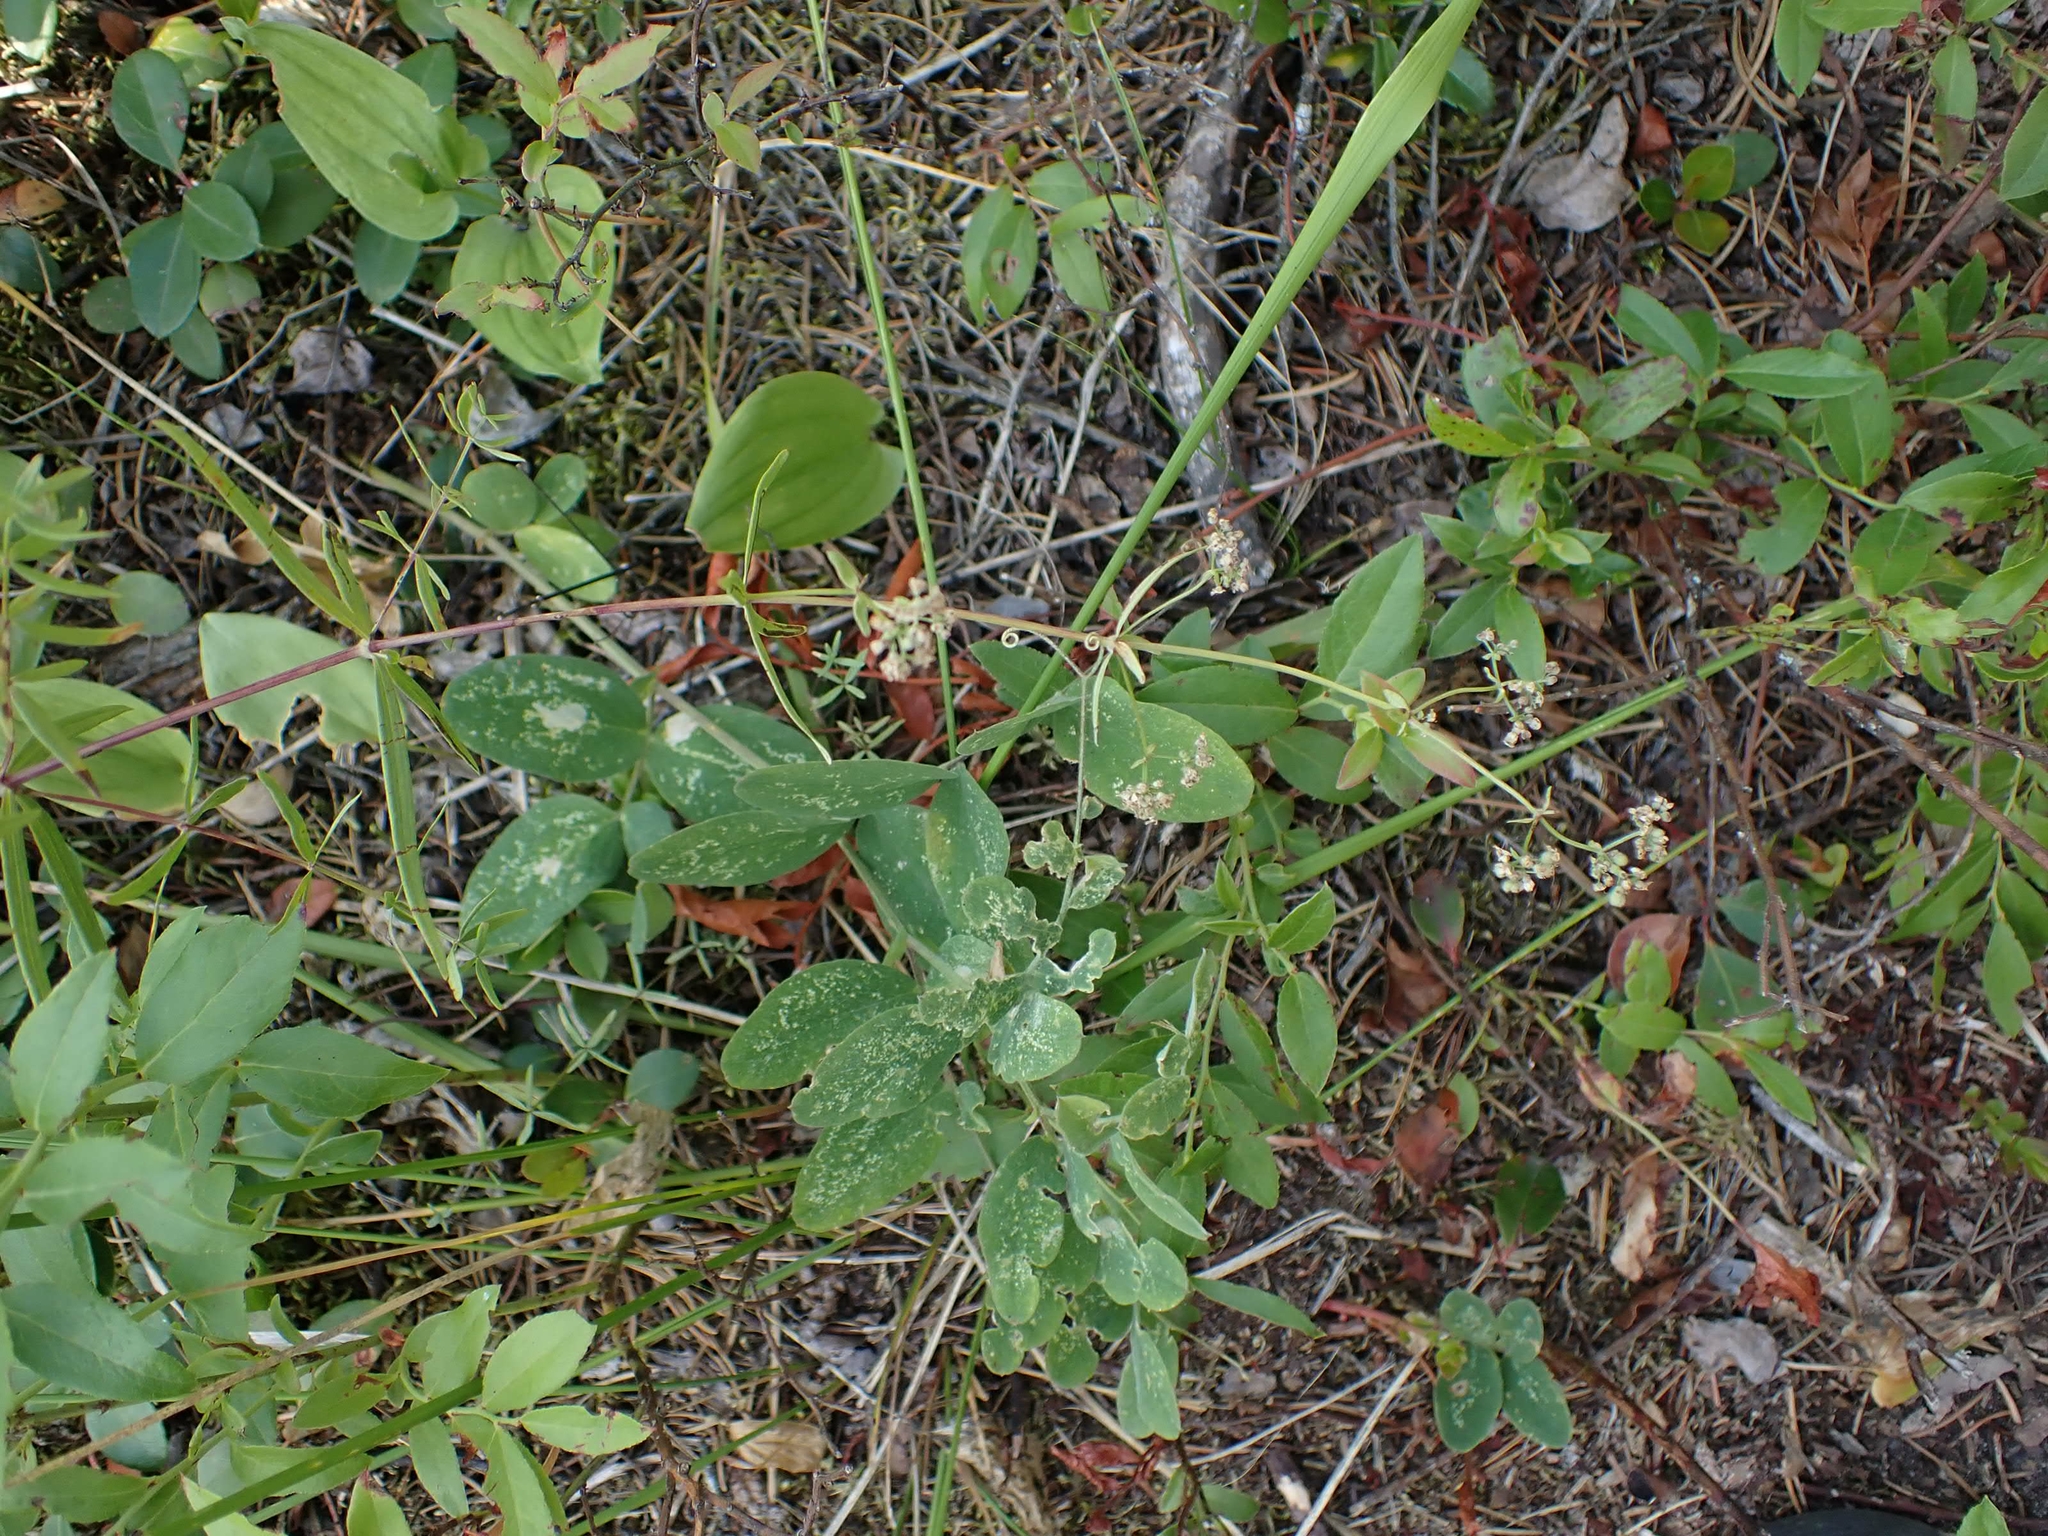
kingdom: Plantae
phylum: Tracheophyta
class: Magnoliopsida
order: Gentianales
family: Rubiaceae
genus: Galium
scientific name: Galium boreale
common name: Northern bedstraw
